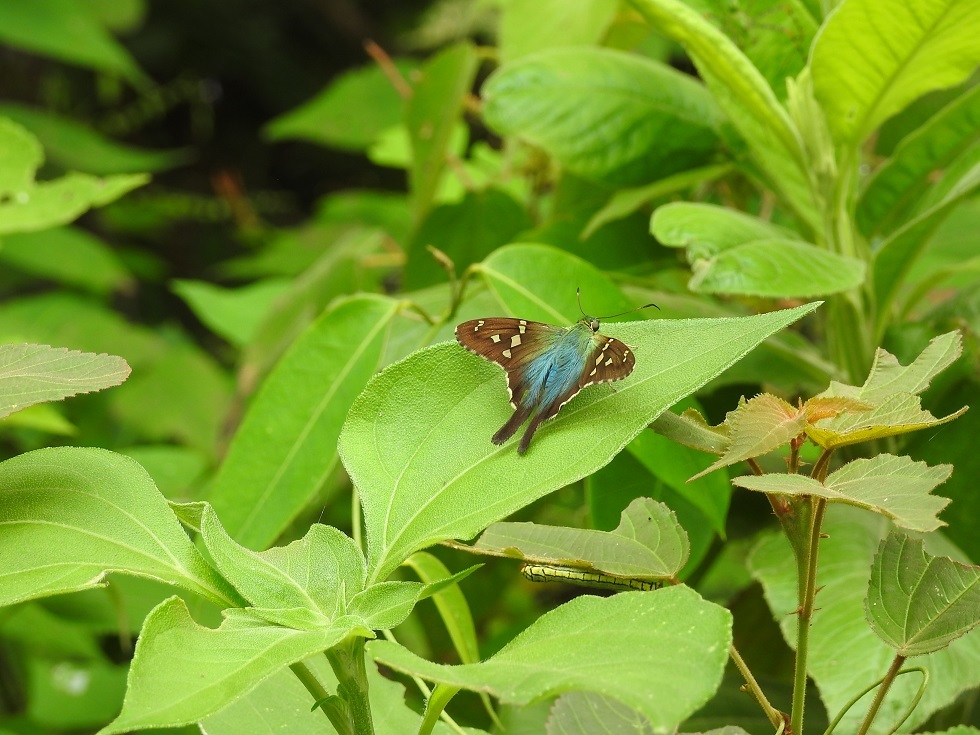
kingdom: Animalia
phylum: Arthropoda
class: Insecta
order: Lepidoptera
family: Hesperiidae
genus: Urbanus
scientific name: Urbanus viterboana
